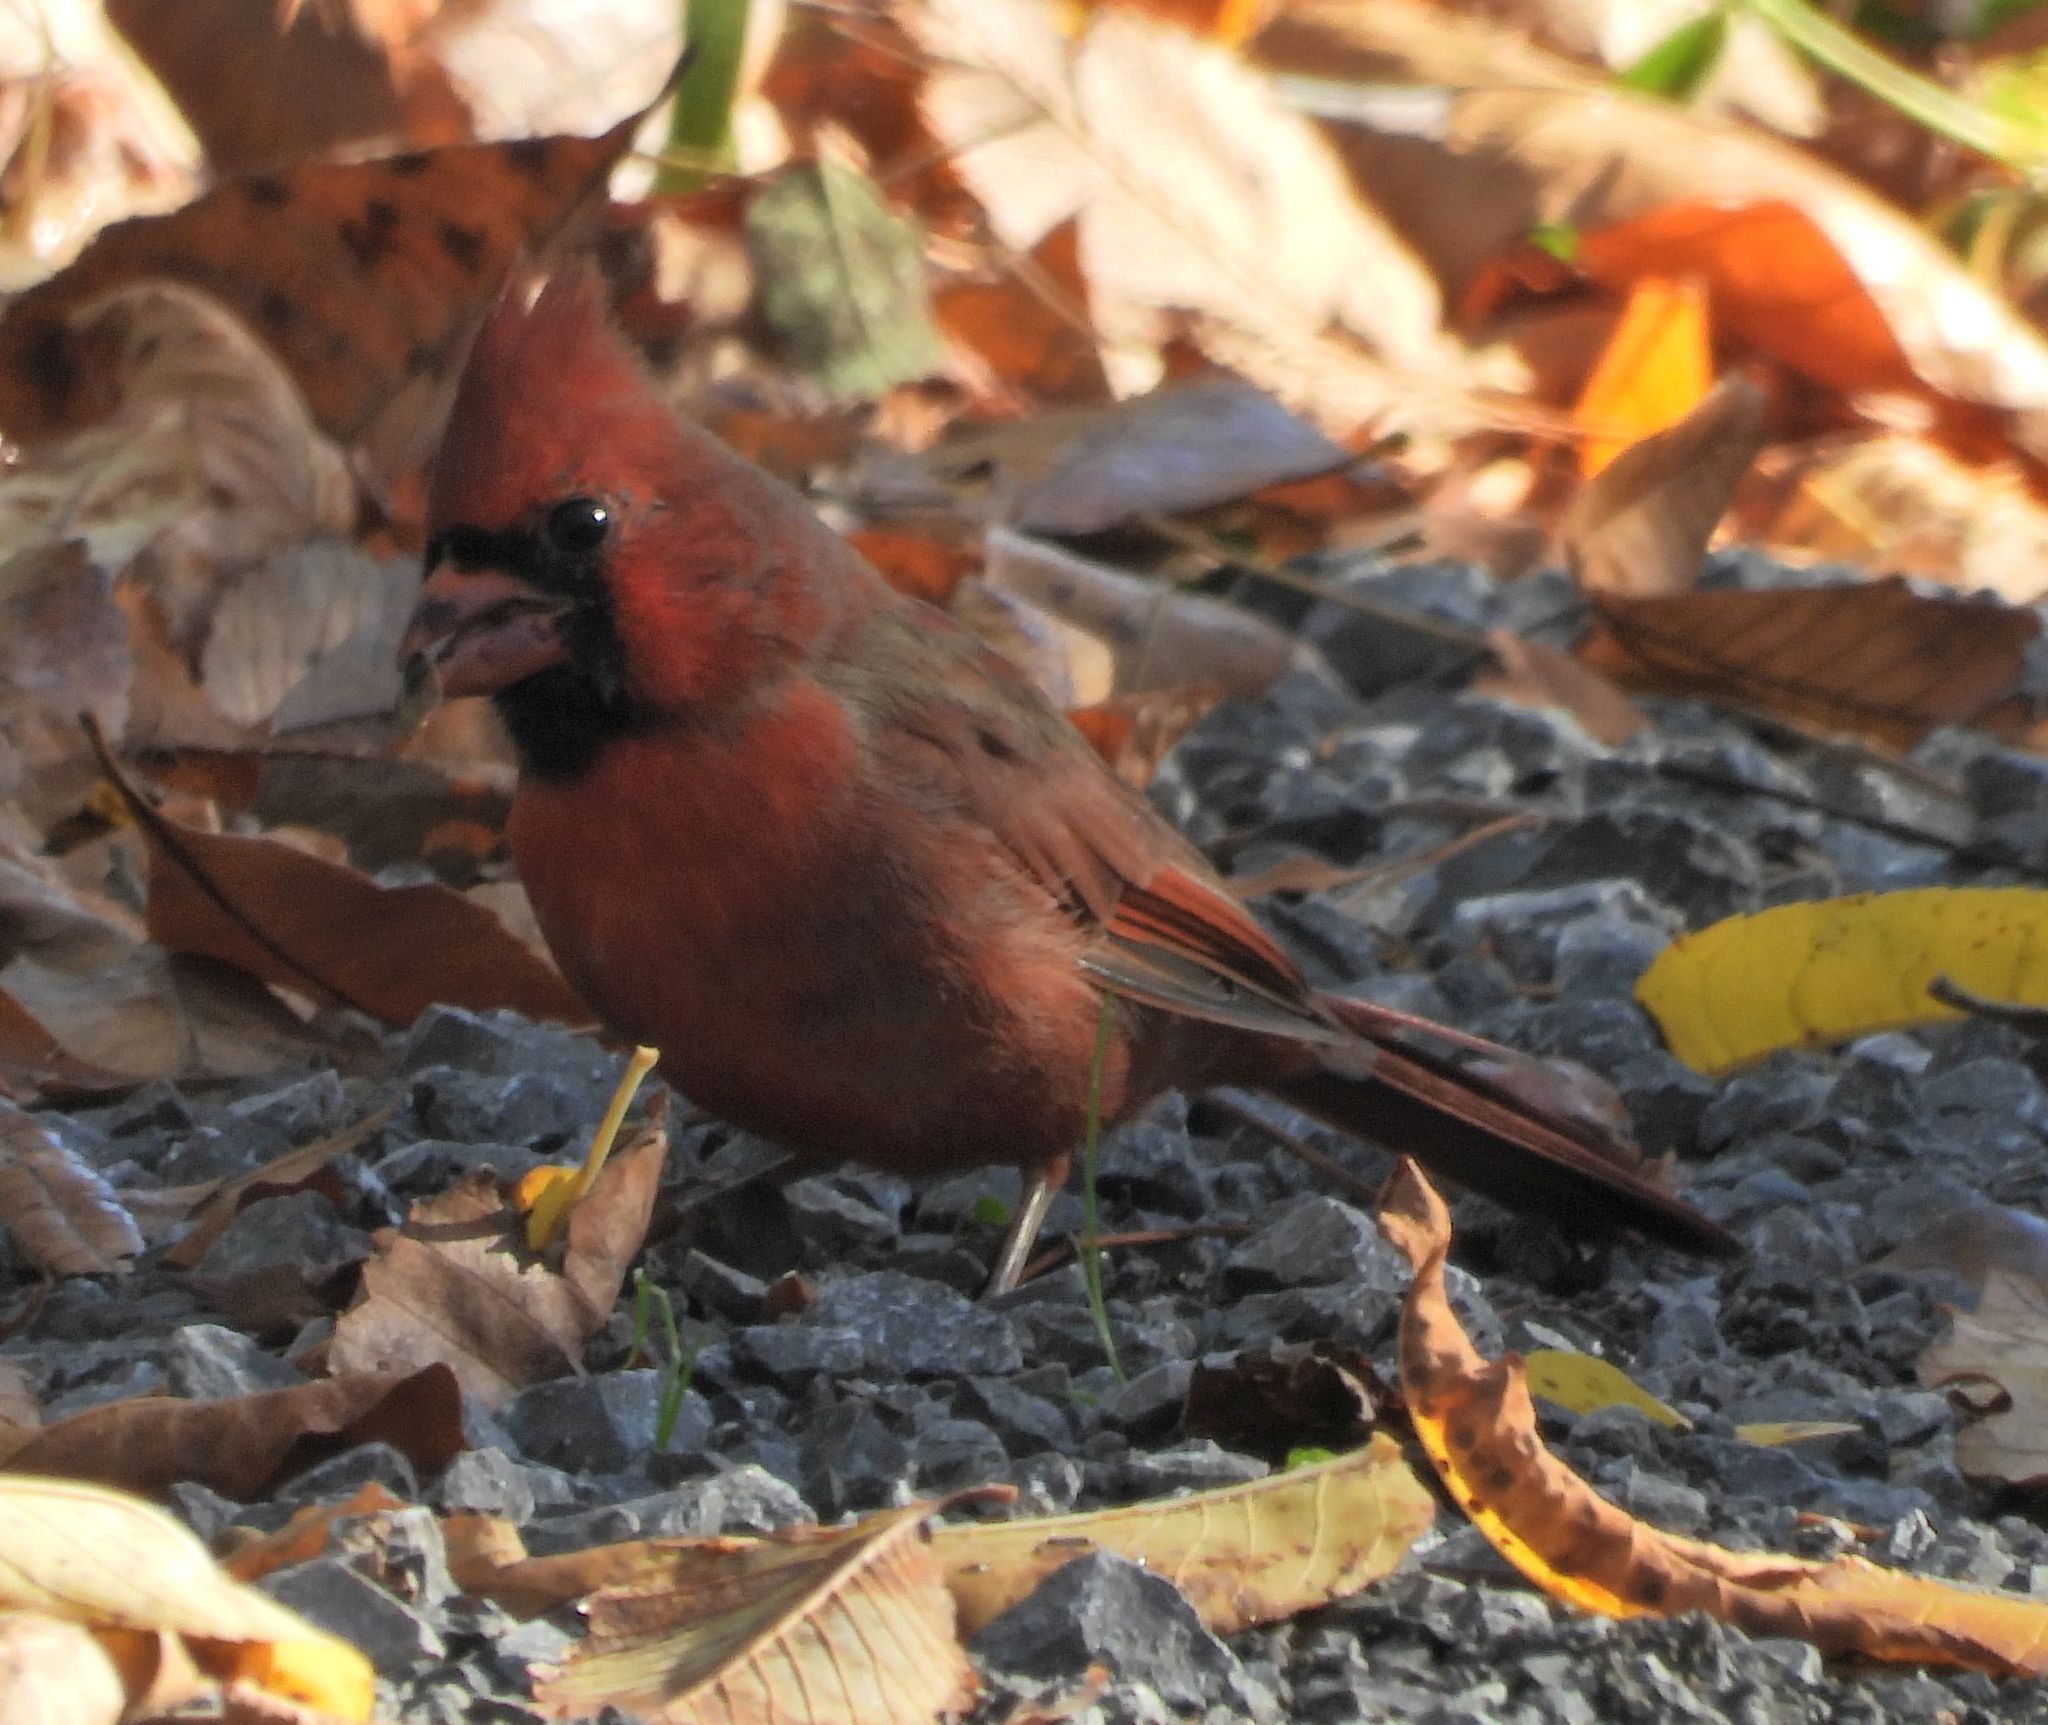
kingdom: Animalia
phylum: Chordata
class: Aves
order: Passeriformes
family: Cardinalidae
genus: Cardinalis
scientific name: Cardinalis cardinalis
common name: Northern cardinal
